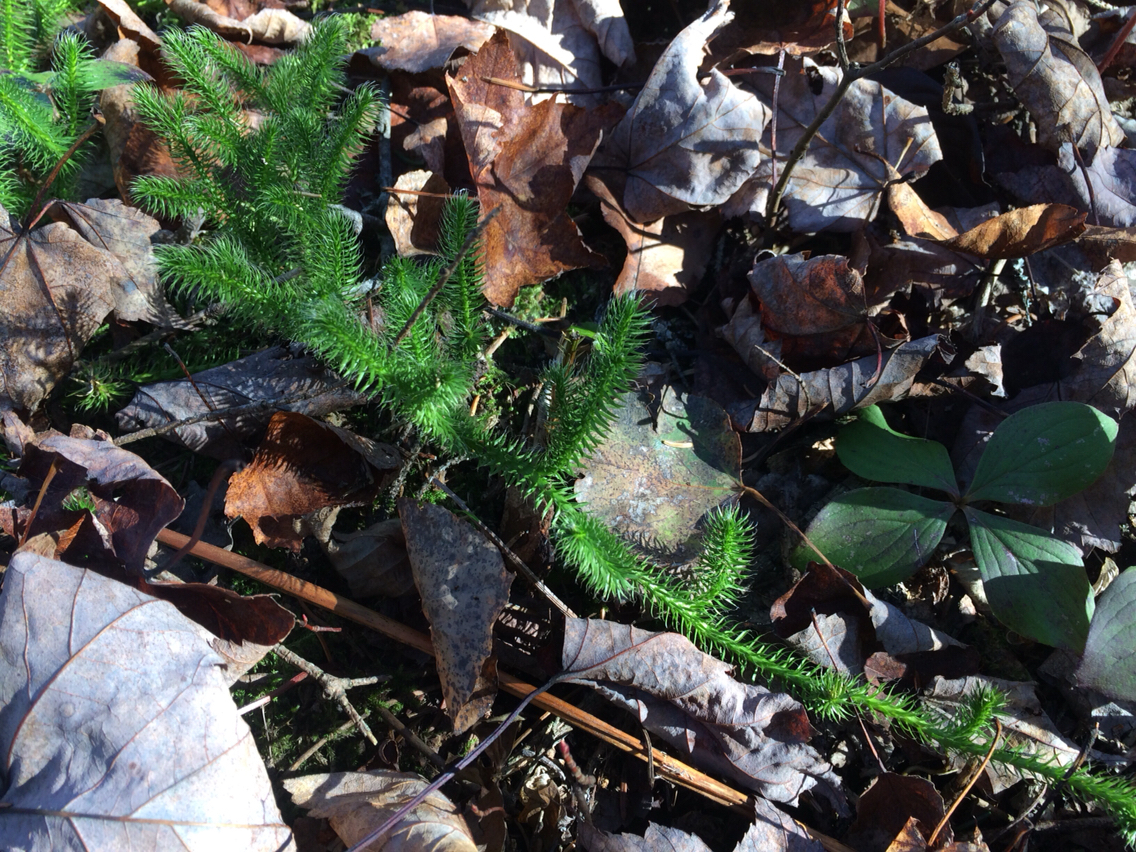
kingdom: Plantae
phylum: Tracheophyta
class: Lycopodiopsida
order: Lycopodiales
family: Lycopodiaceae
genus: Lycopodium
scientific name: Lycopodium clavatum
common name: Stag's-horn clubmoss
